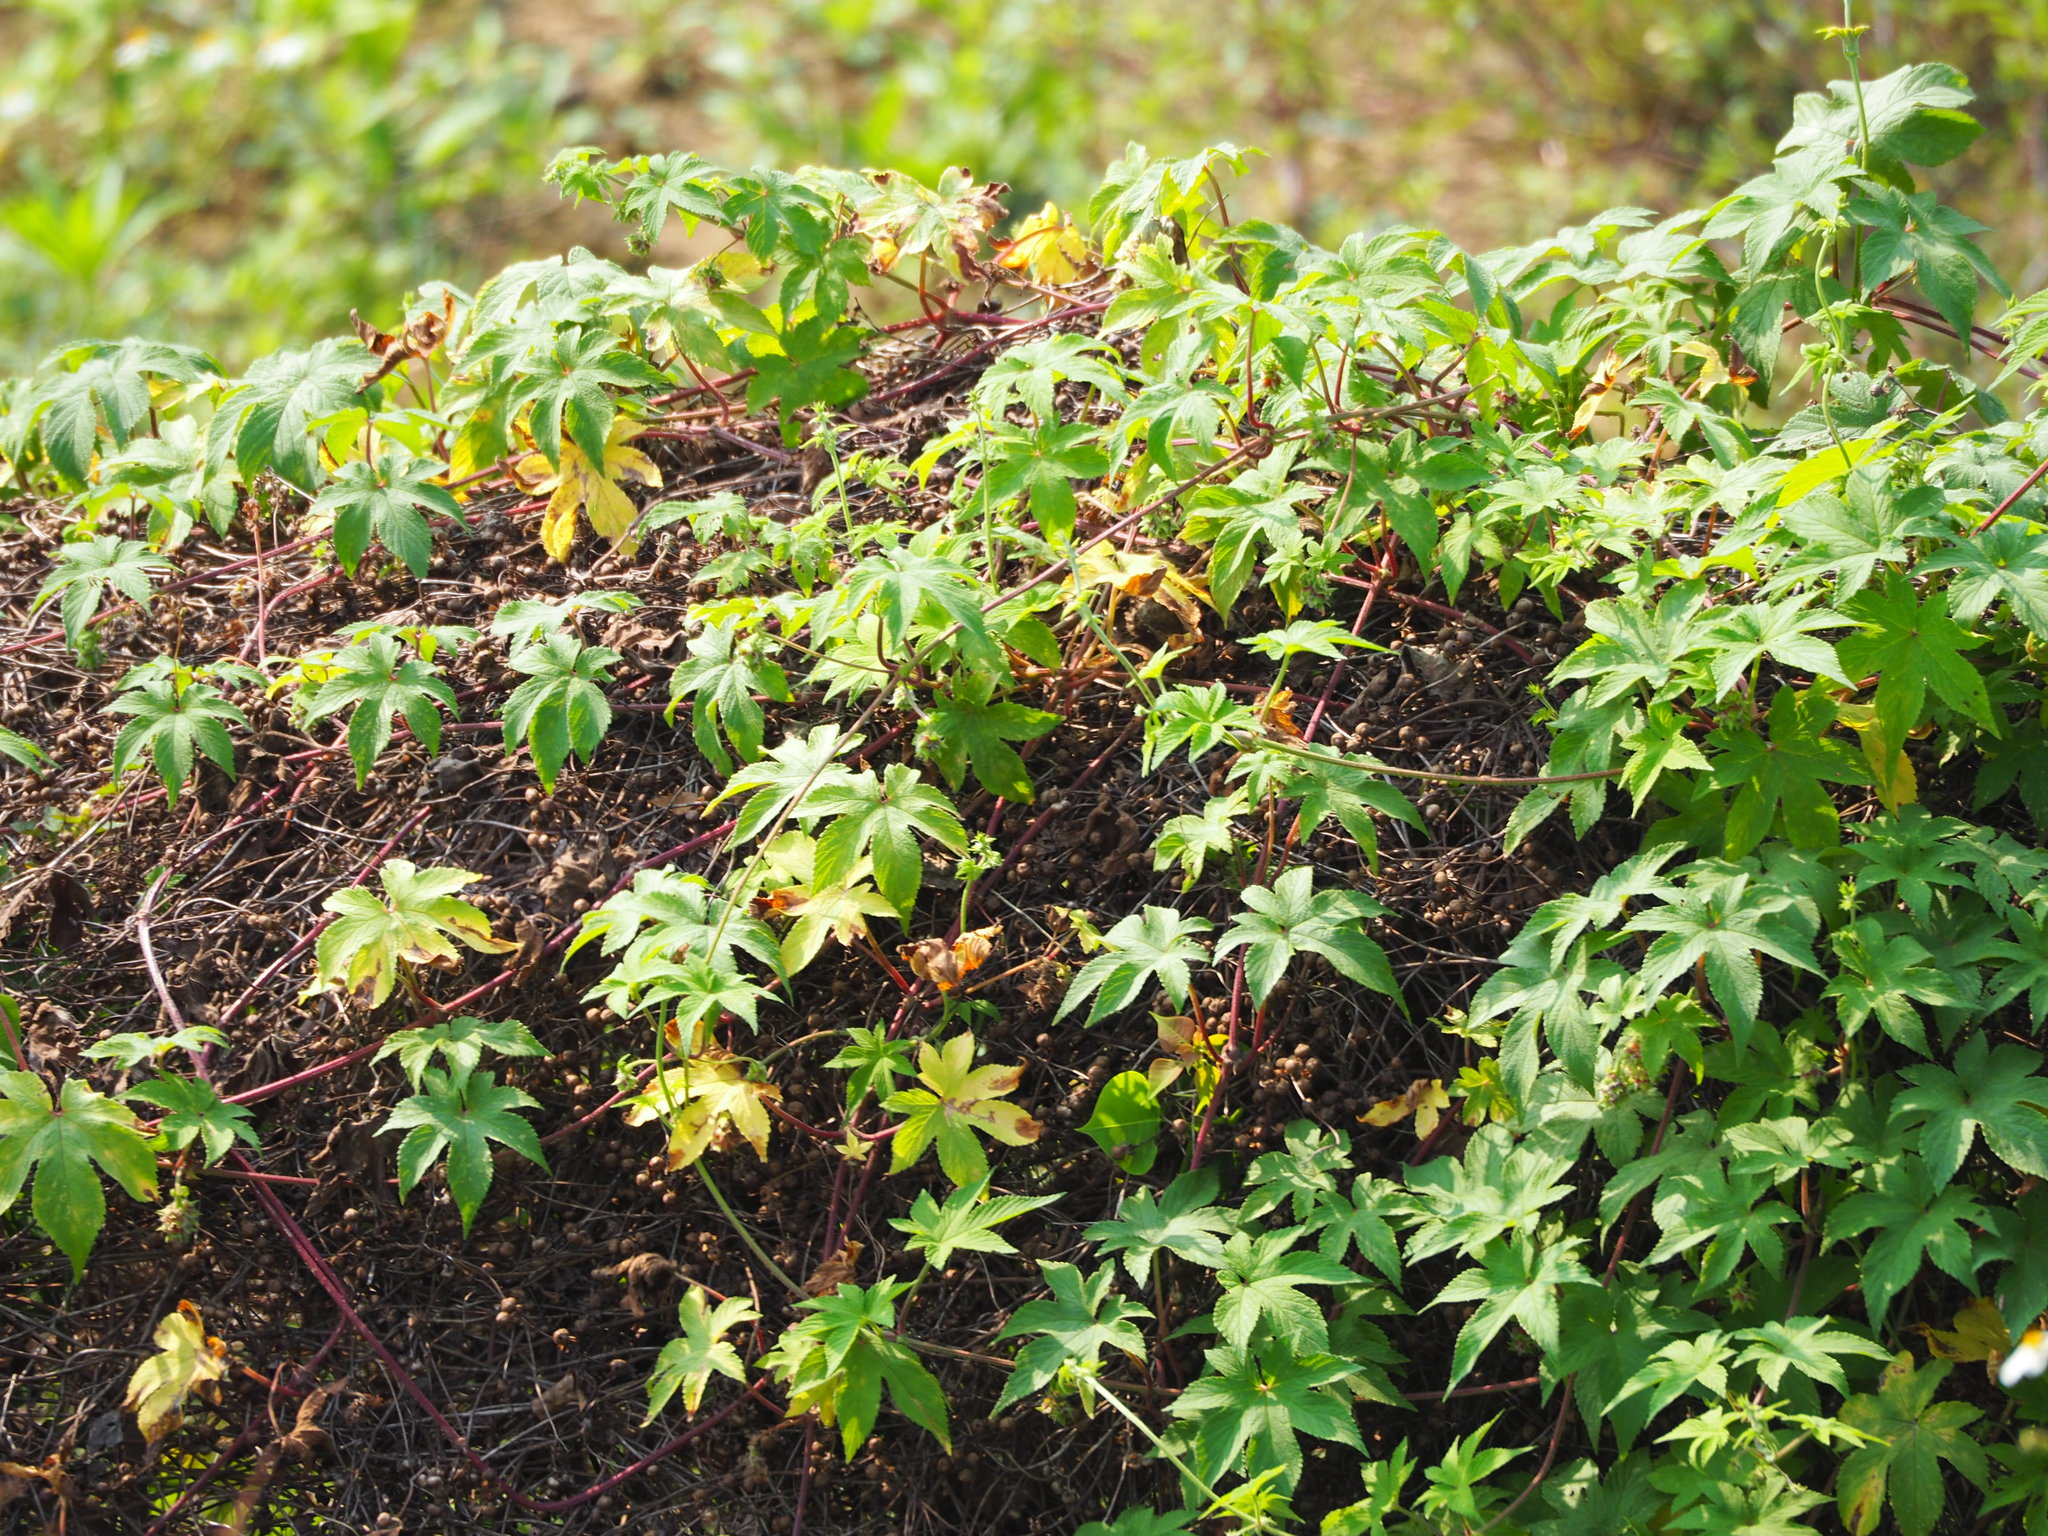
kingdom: Plantae
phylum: Tracheophyta
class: Magnoliopsida
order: Rosales
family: Cannabaceae
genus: Humulus
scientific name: Humulus scandens
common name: Japanese hop
